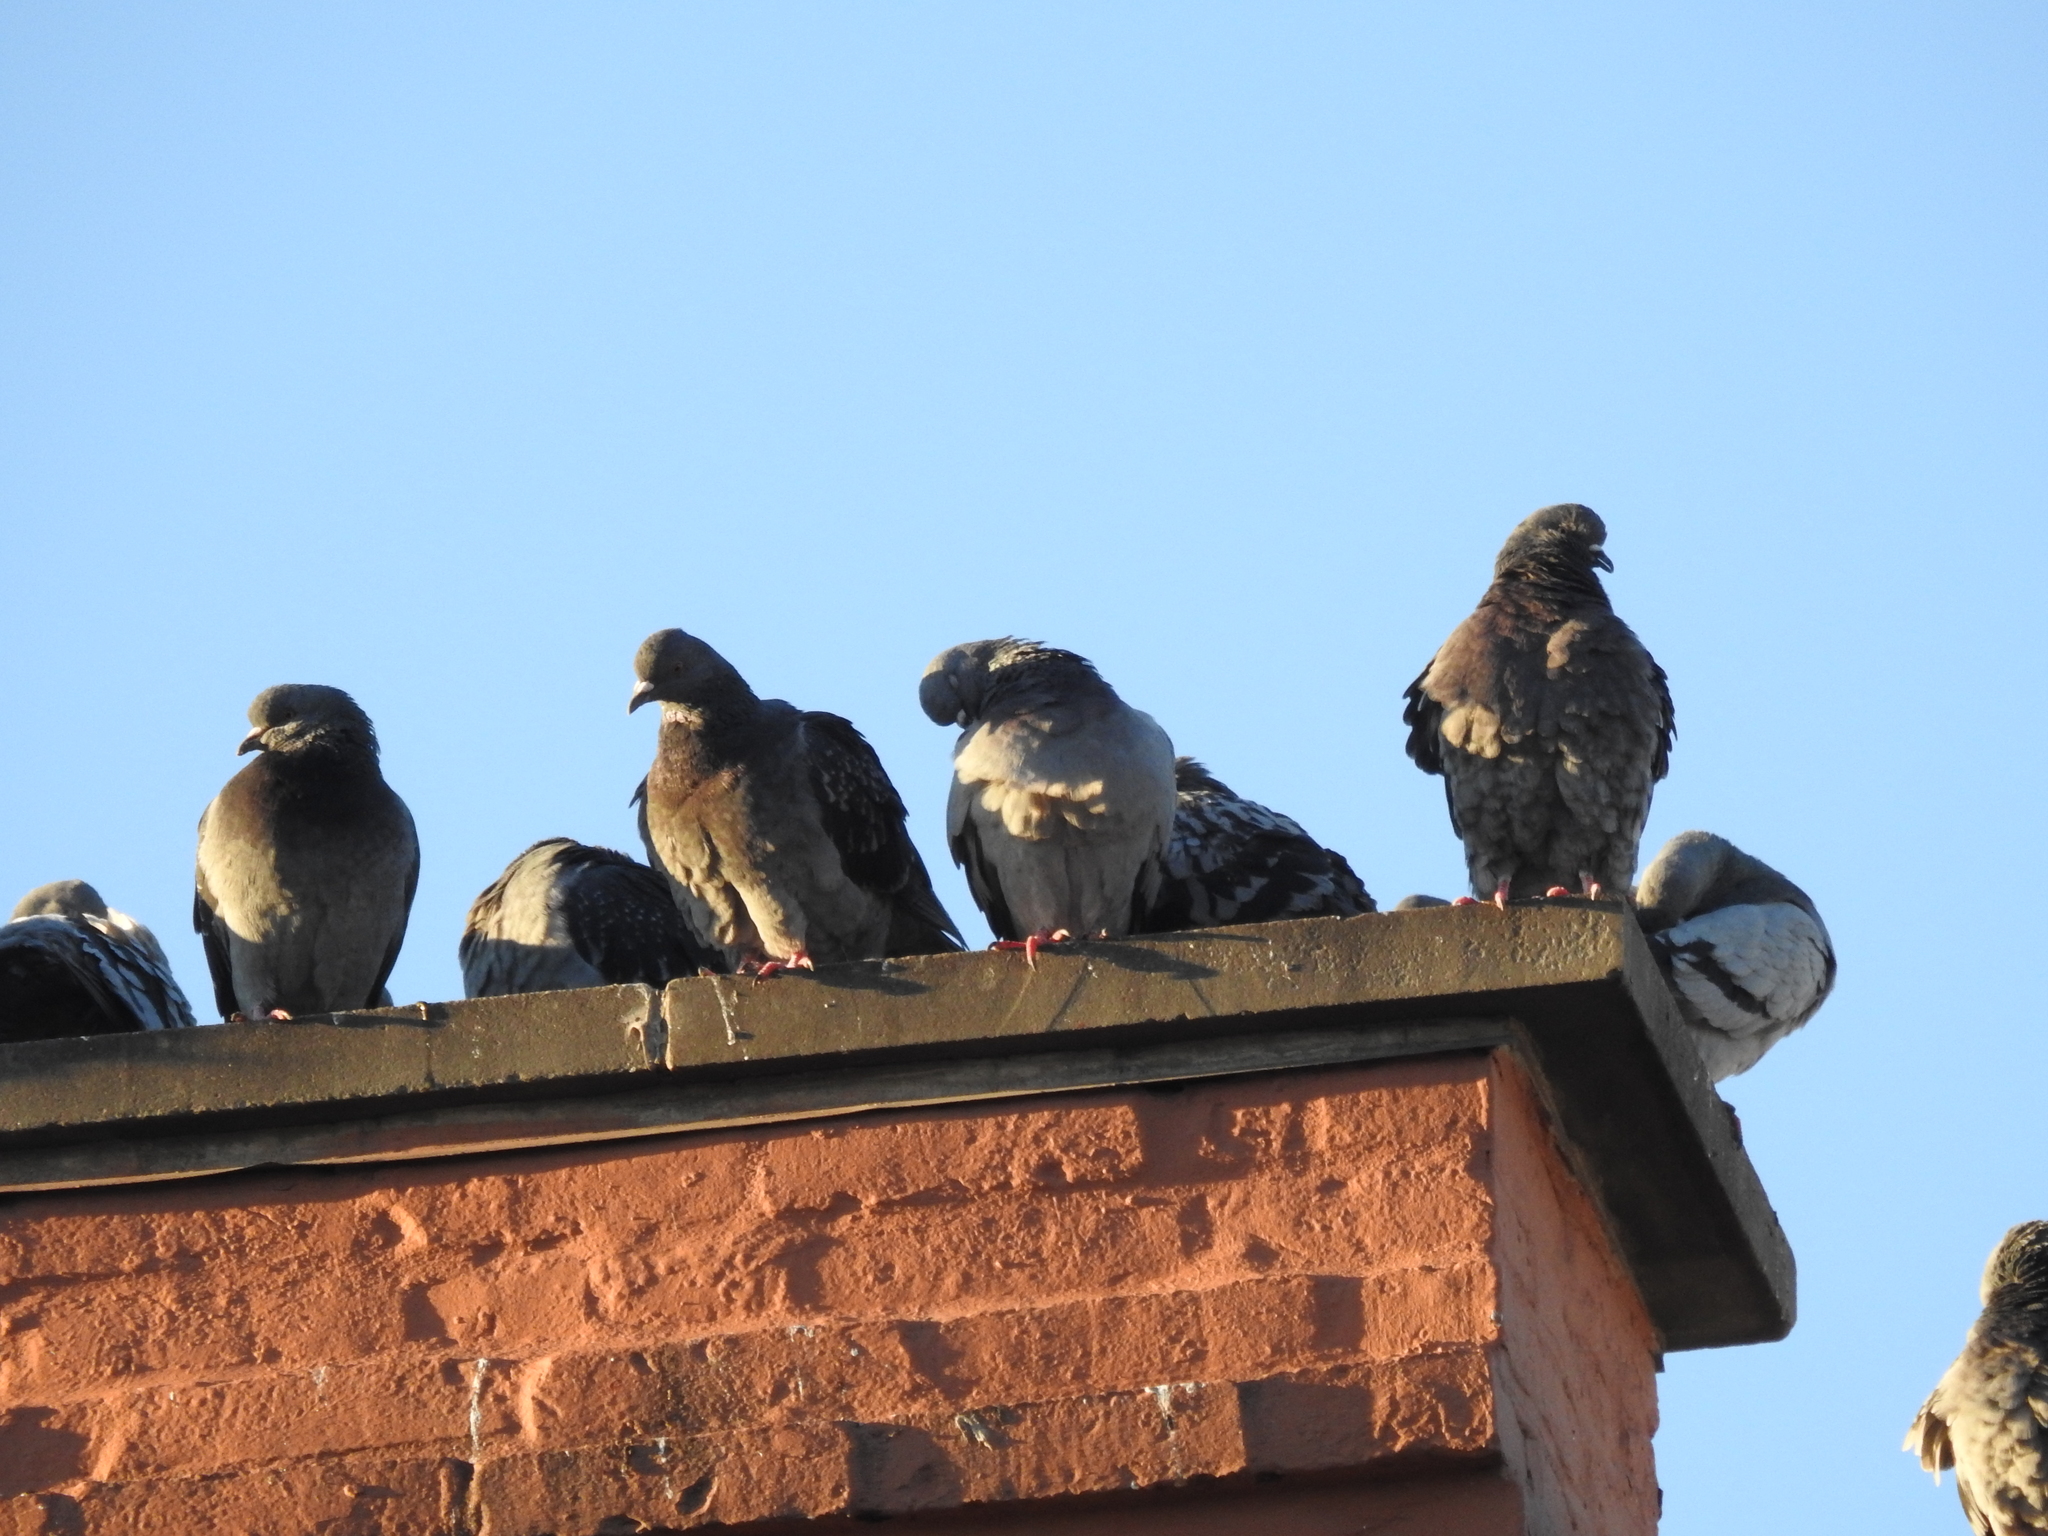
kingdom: Animalia
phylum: Chordata
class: Aves
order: Columbiformes
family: Columbidae
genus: Columba
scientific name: Columba livia
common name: Rock pigeon
